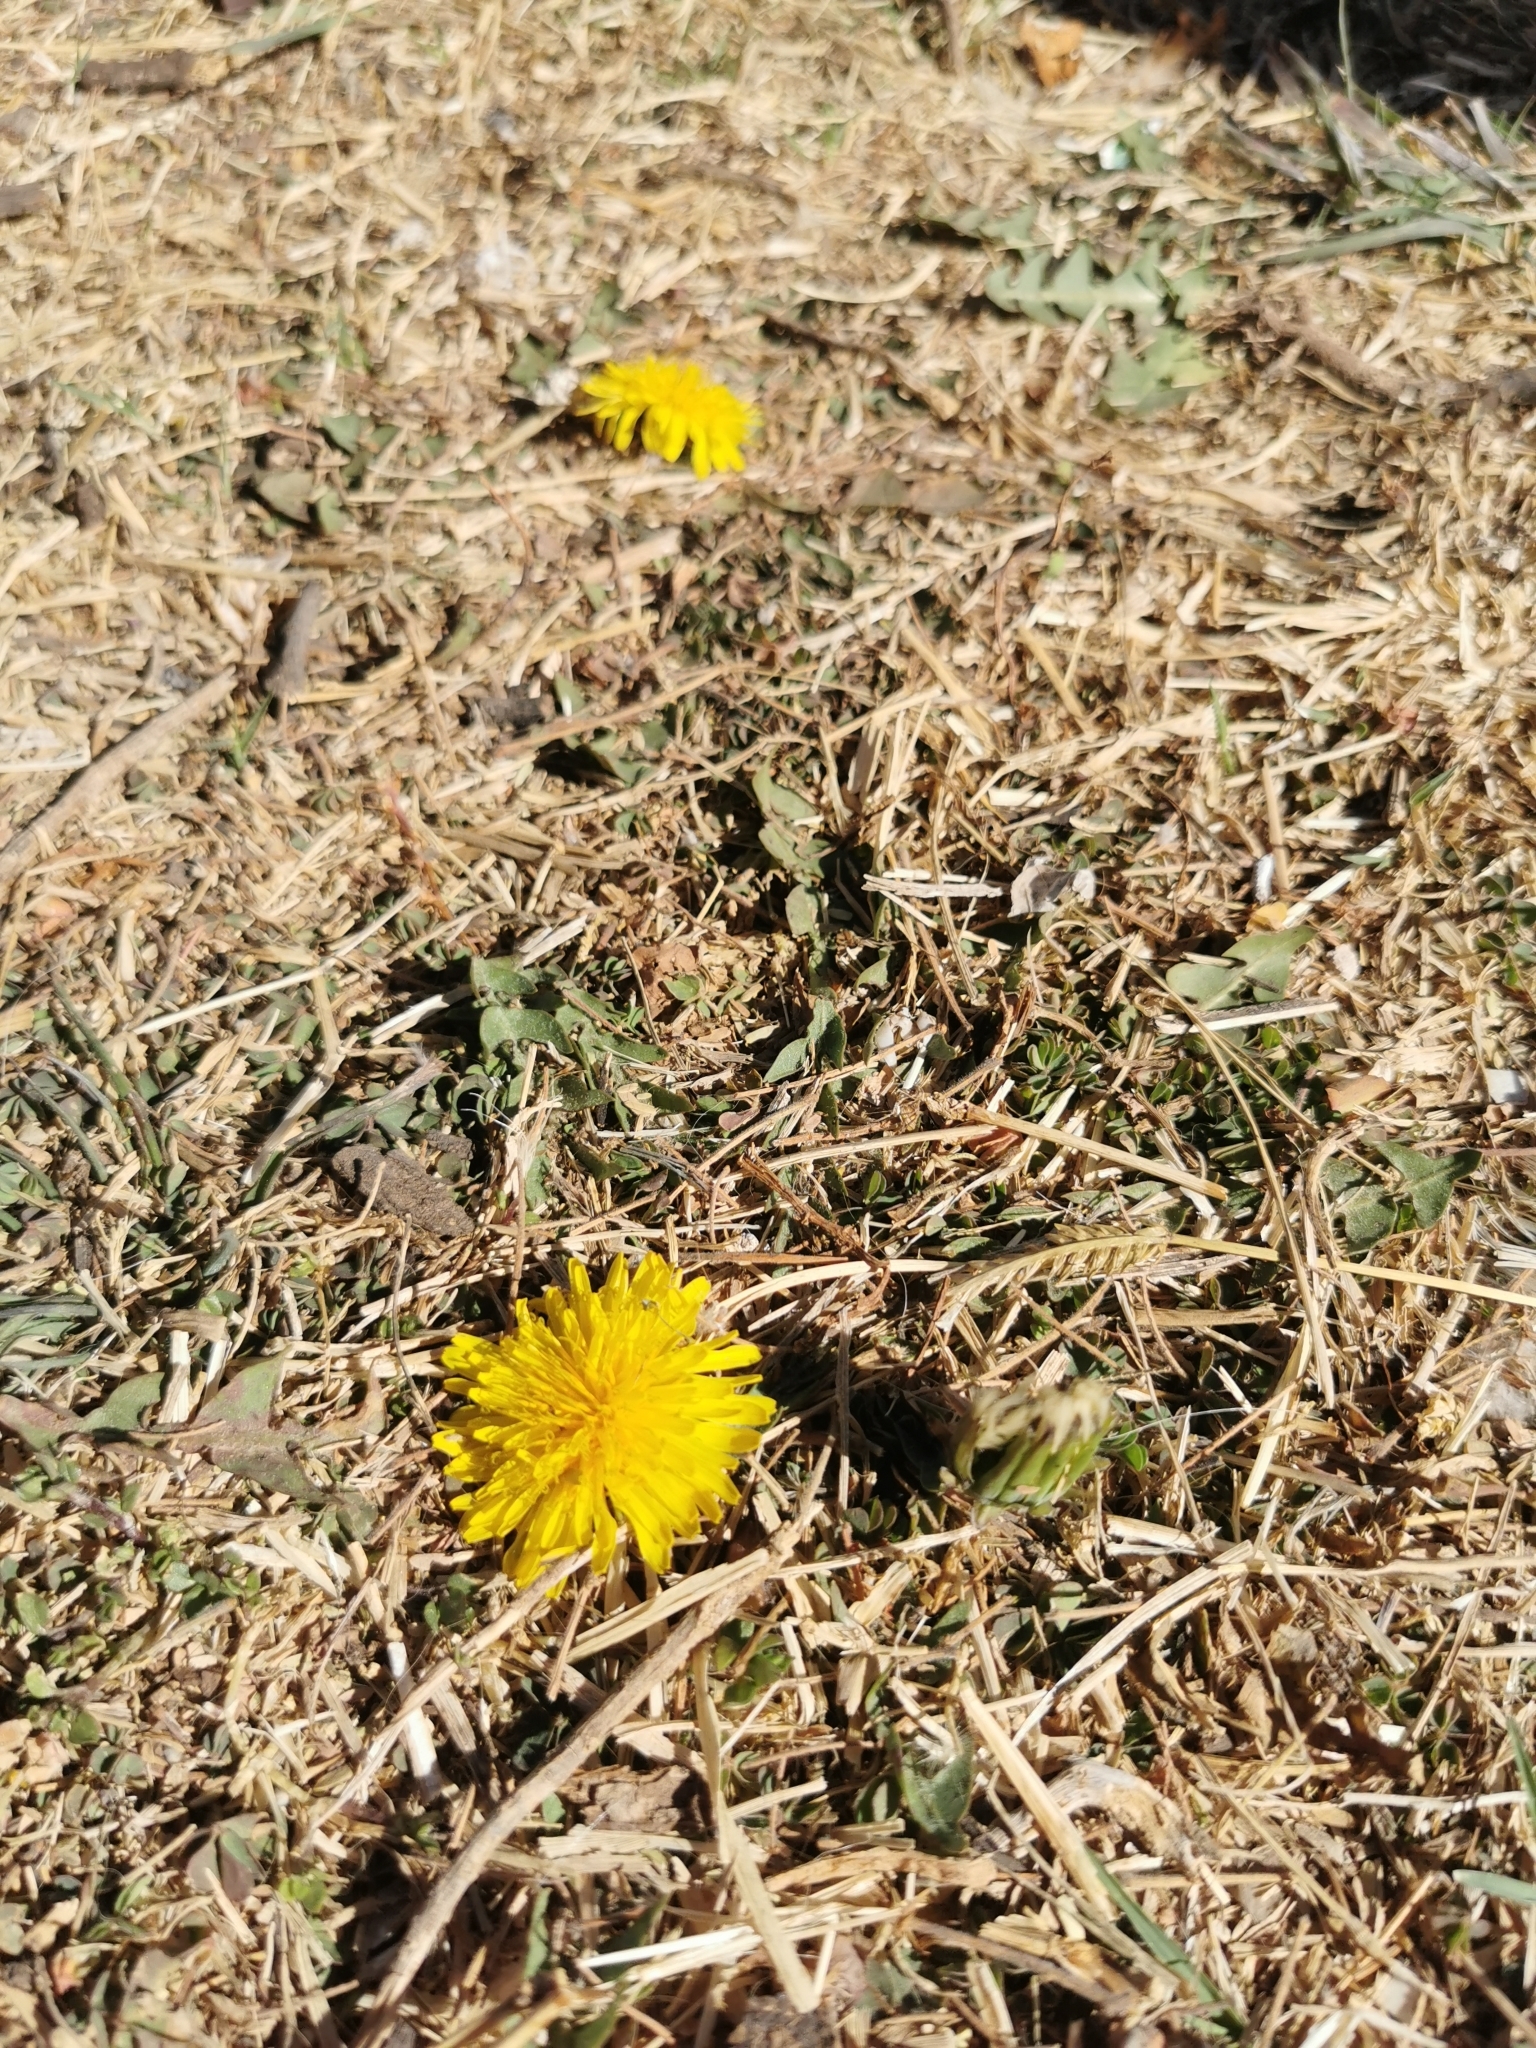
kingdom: Plantae
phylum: Tracheophyta
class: Magnoliopsida
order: Asterales
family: Asteraceae
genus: Taraxacum
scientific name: Taraxacum officinale
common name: Common dandelion
